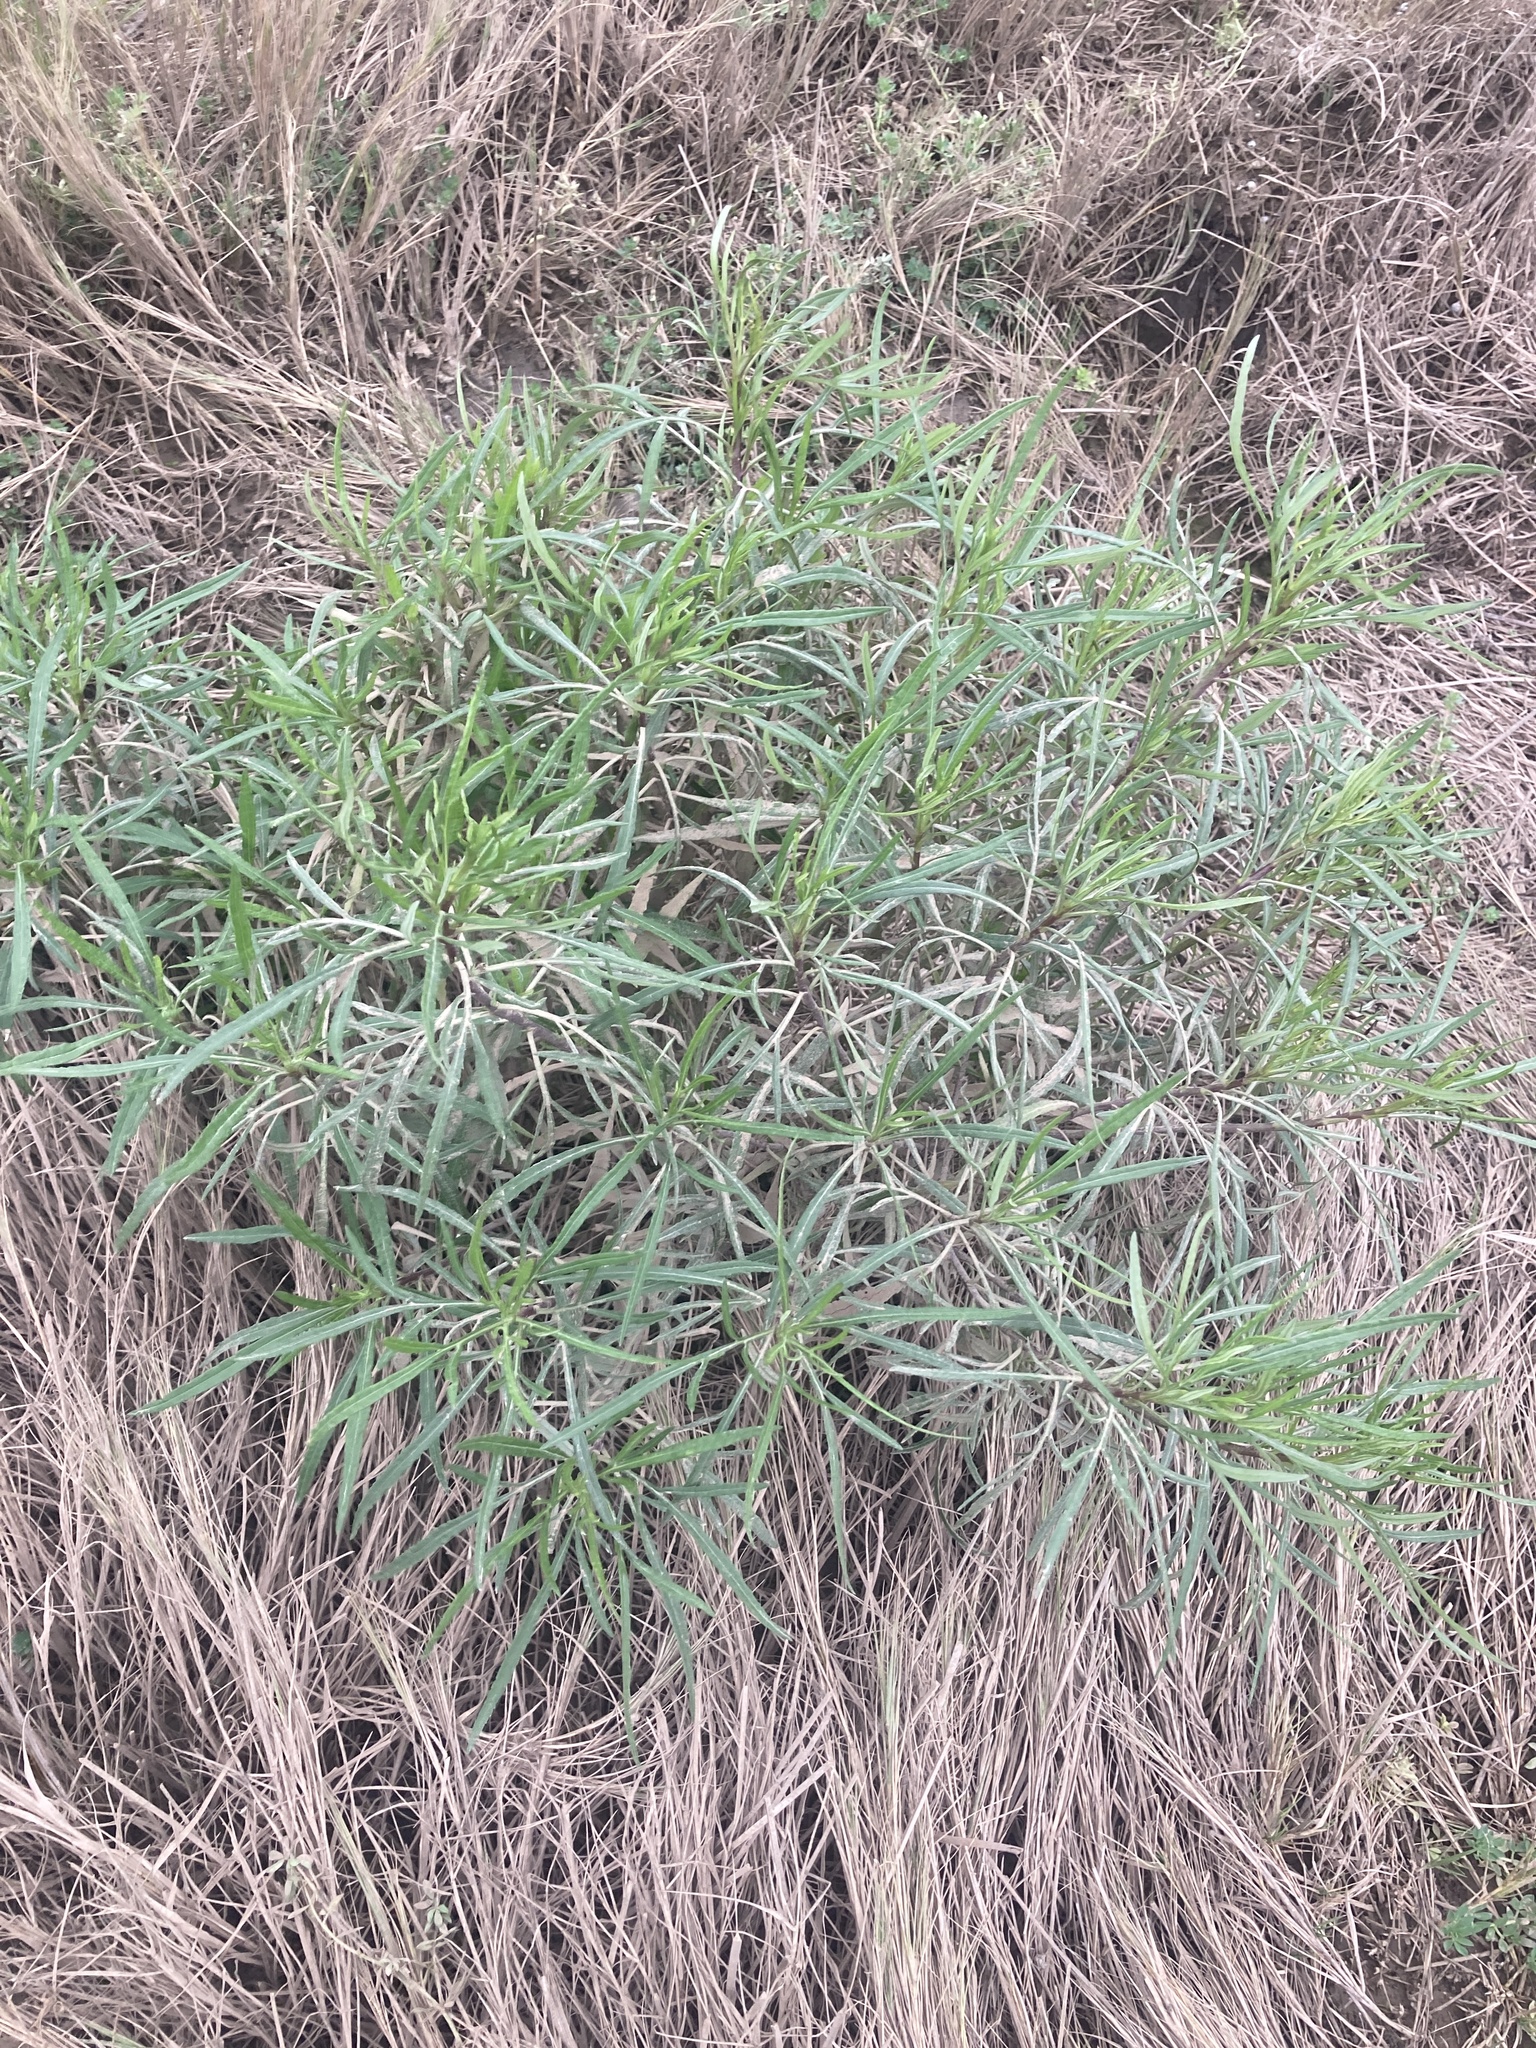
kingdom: Plantae
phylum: Tracheophyta
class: Magnoliopsida
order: Asterales
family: Asteraceae
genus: Senecio
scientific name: Senecio brasiliensis
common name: Hemp-leaf ragwort
